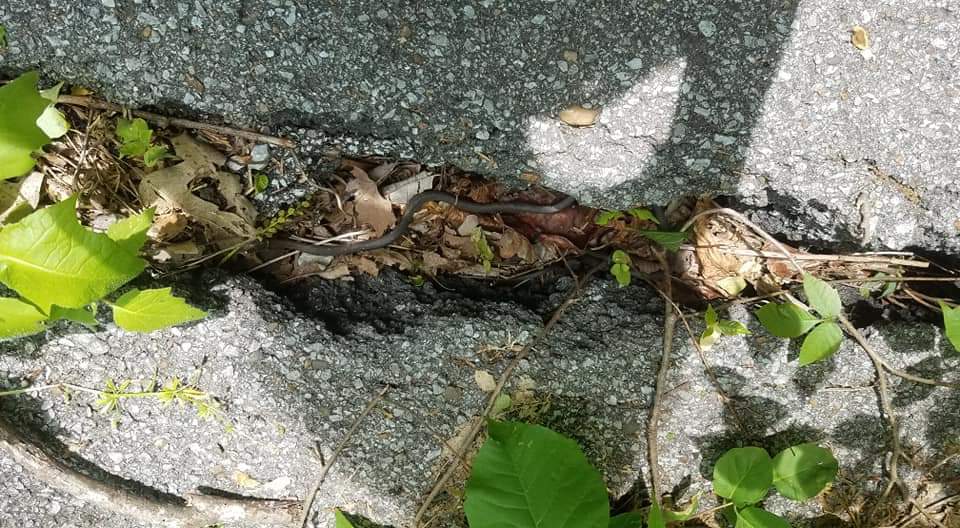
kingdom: Animalia
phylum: Chordata
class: Squamata
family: Colubridae
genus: Diadophis
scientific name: Diadophis punctatus
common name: Ringneck snake
